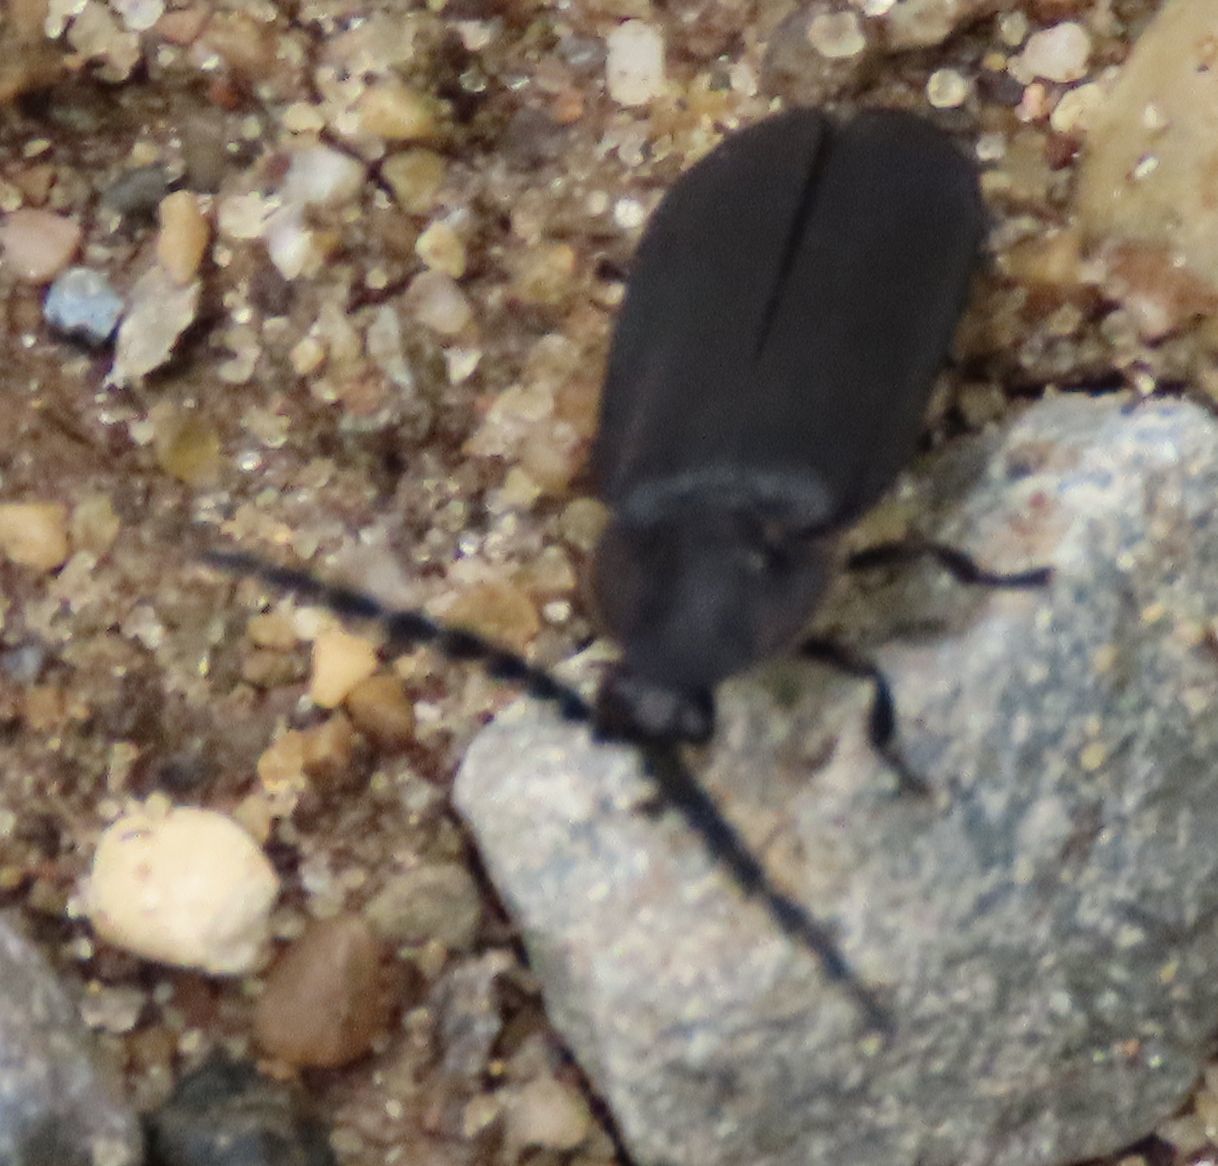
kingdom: Animalia
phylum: Arthropoda
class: Insecta
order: Coleoptera
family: Lampyridae
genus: Lucidota
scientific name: Lucidota atra
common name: Black firefly
